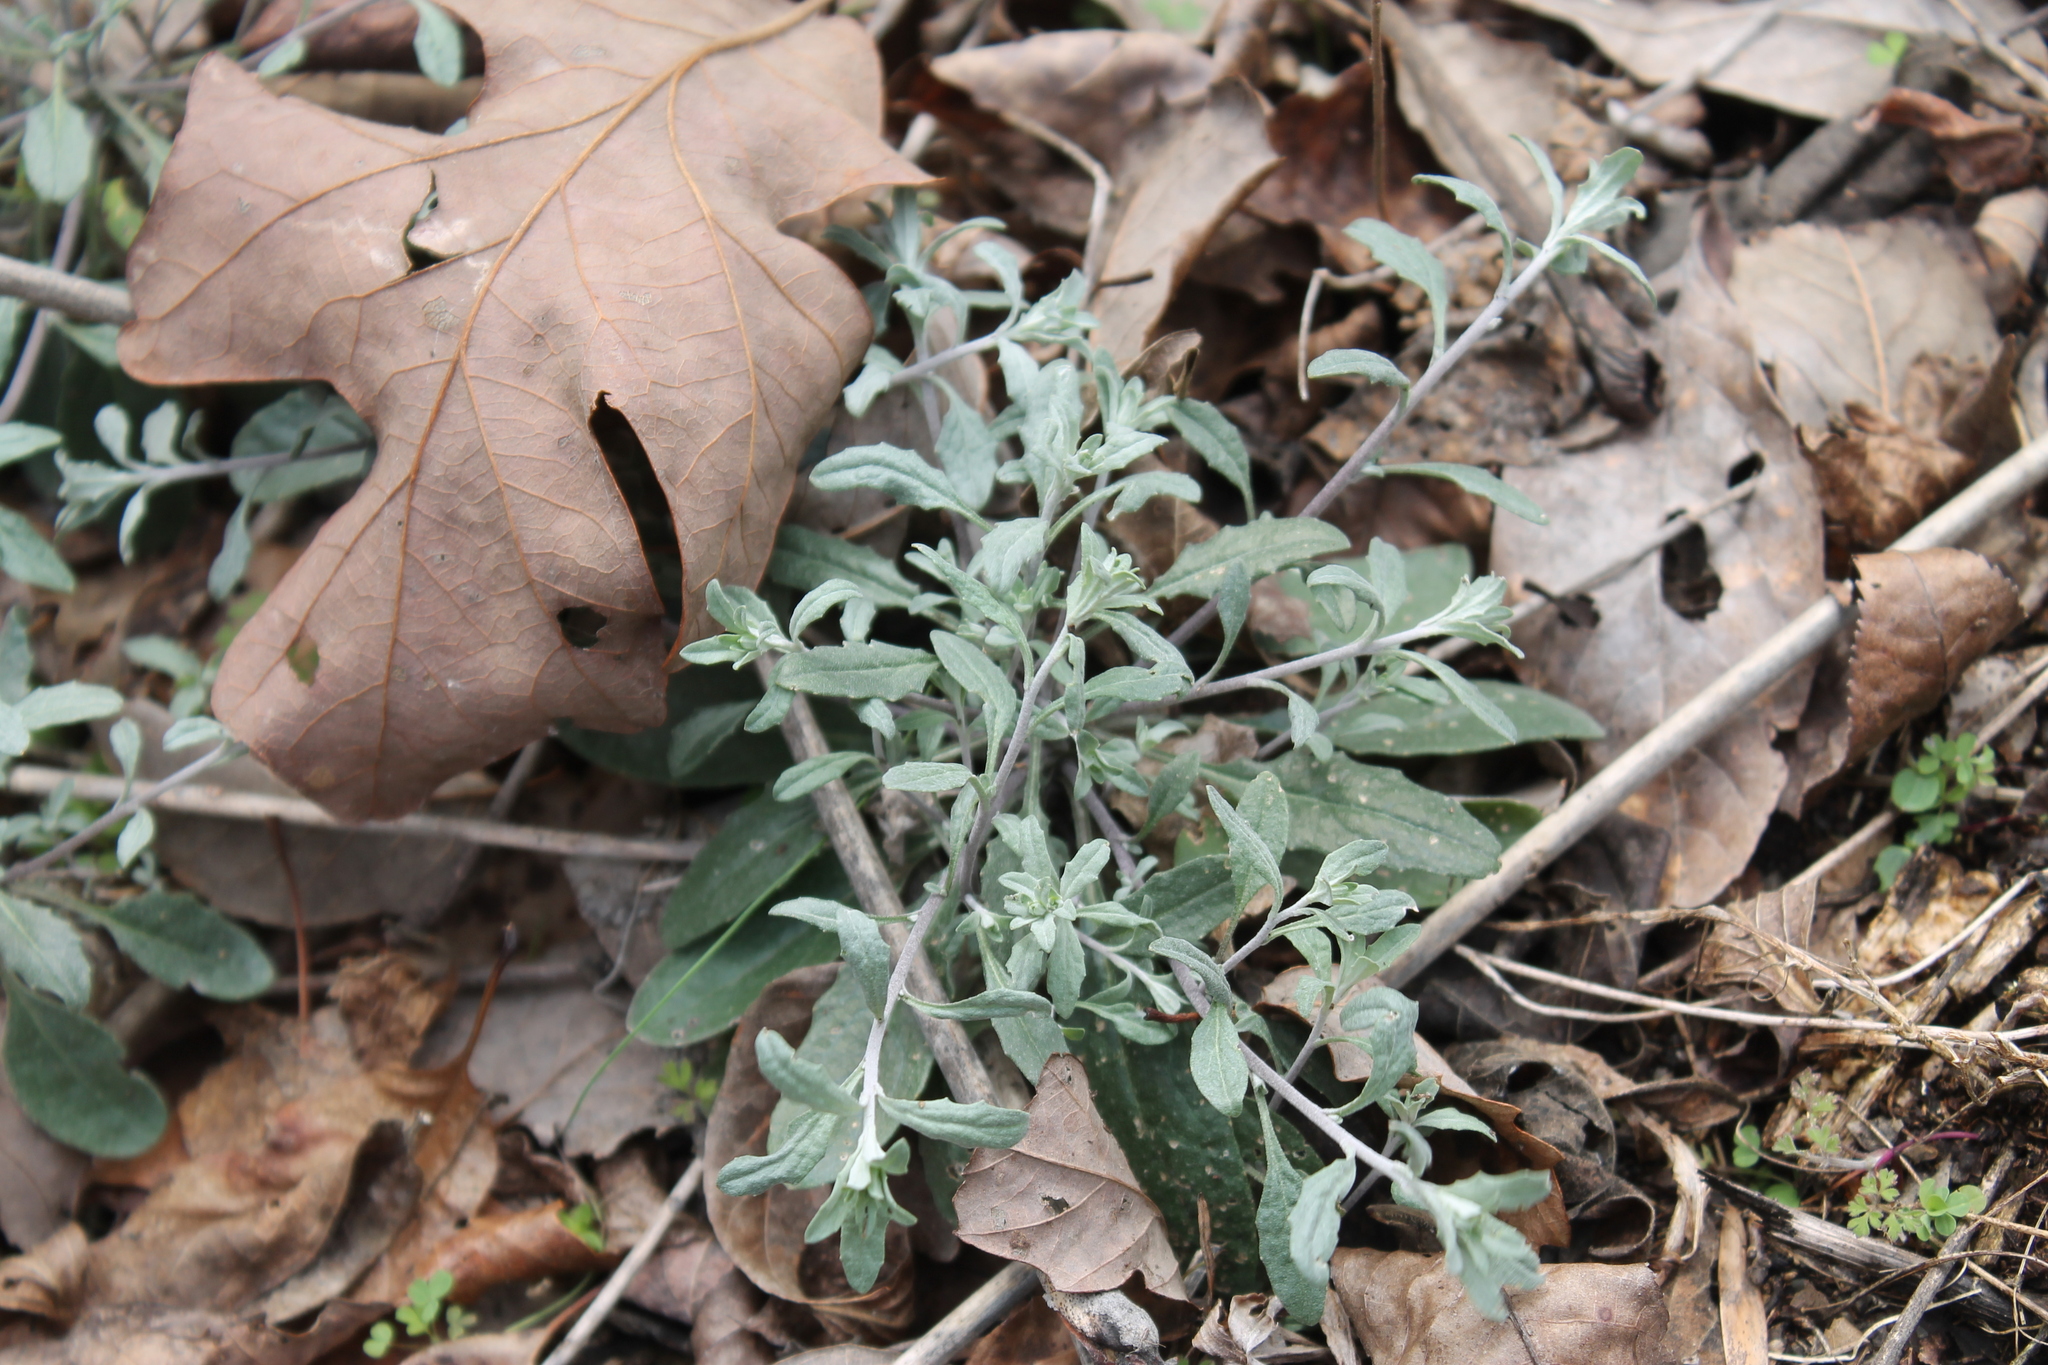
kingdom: Plantae
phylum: Tracheophyta
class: Magnoliopsida
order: Brassicales
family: Brassicaceae
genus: Physaria
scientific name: Physaria globosa
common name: Globe bladderpod
